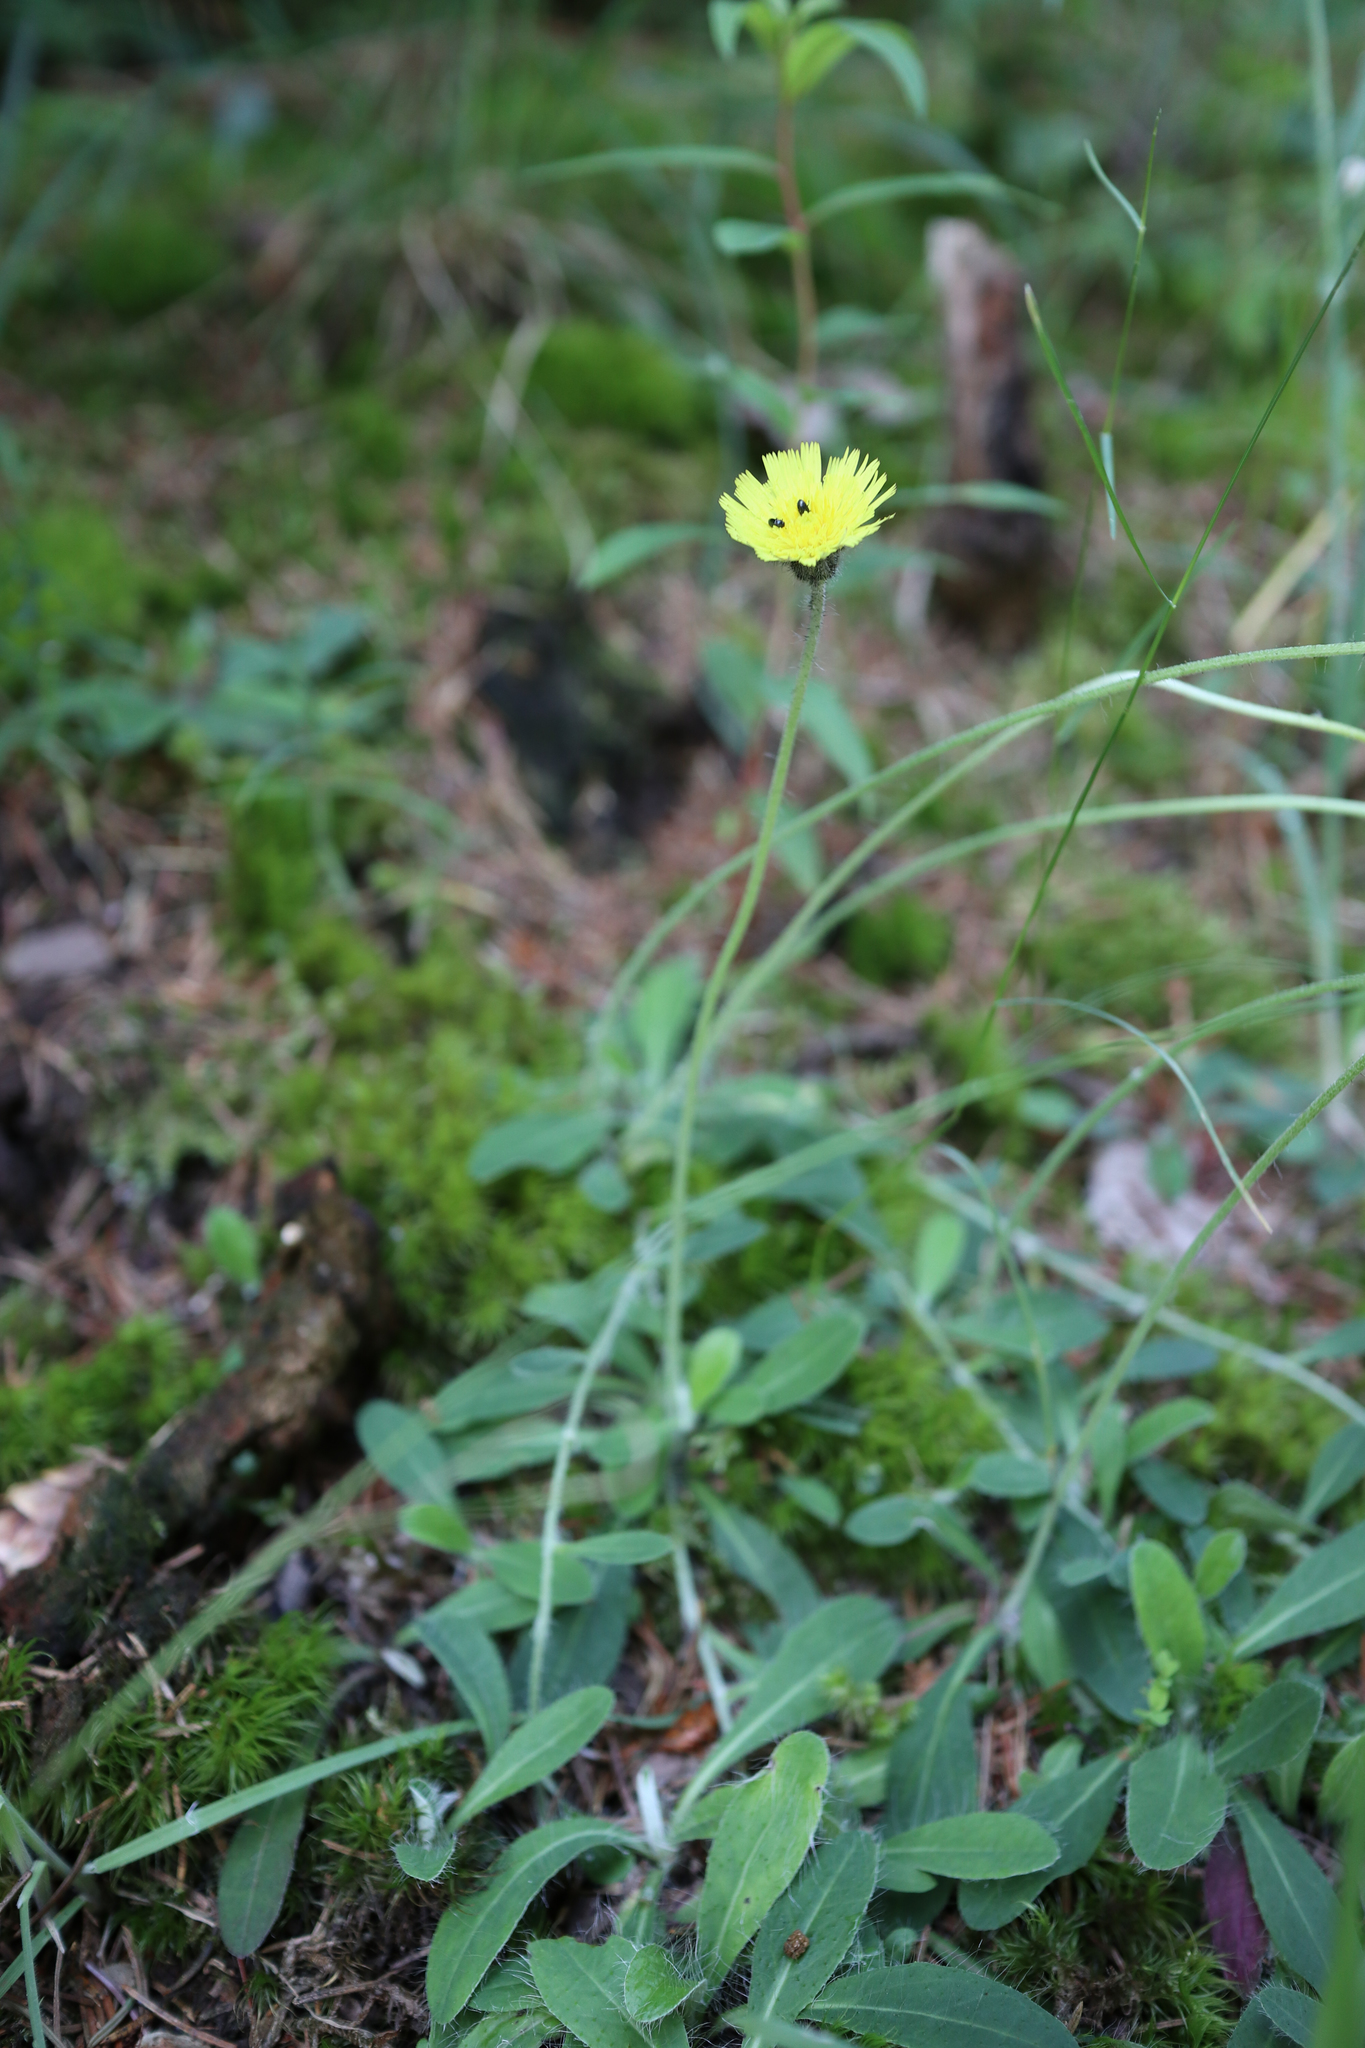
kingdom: Plantae
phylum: Tracheophyta
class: Magnoliopsida
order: Asterales
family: Asteraceae
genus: Pilosella
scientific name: Pilosella officinarum
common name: Mouse-ear hawkweed
